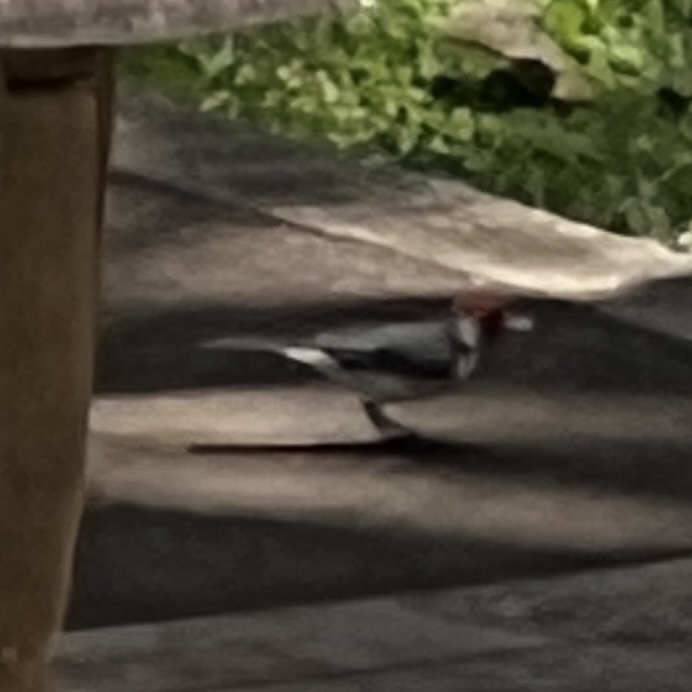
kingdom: Animalia
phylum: Chordata
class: Aves
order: Passeriformes
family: Thraupidae
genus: Paroaria
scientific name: Paroaria coronata
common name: Red-crested cardinal
